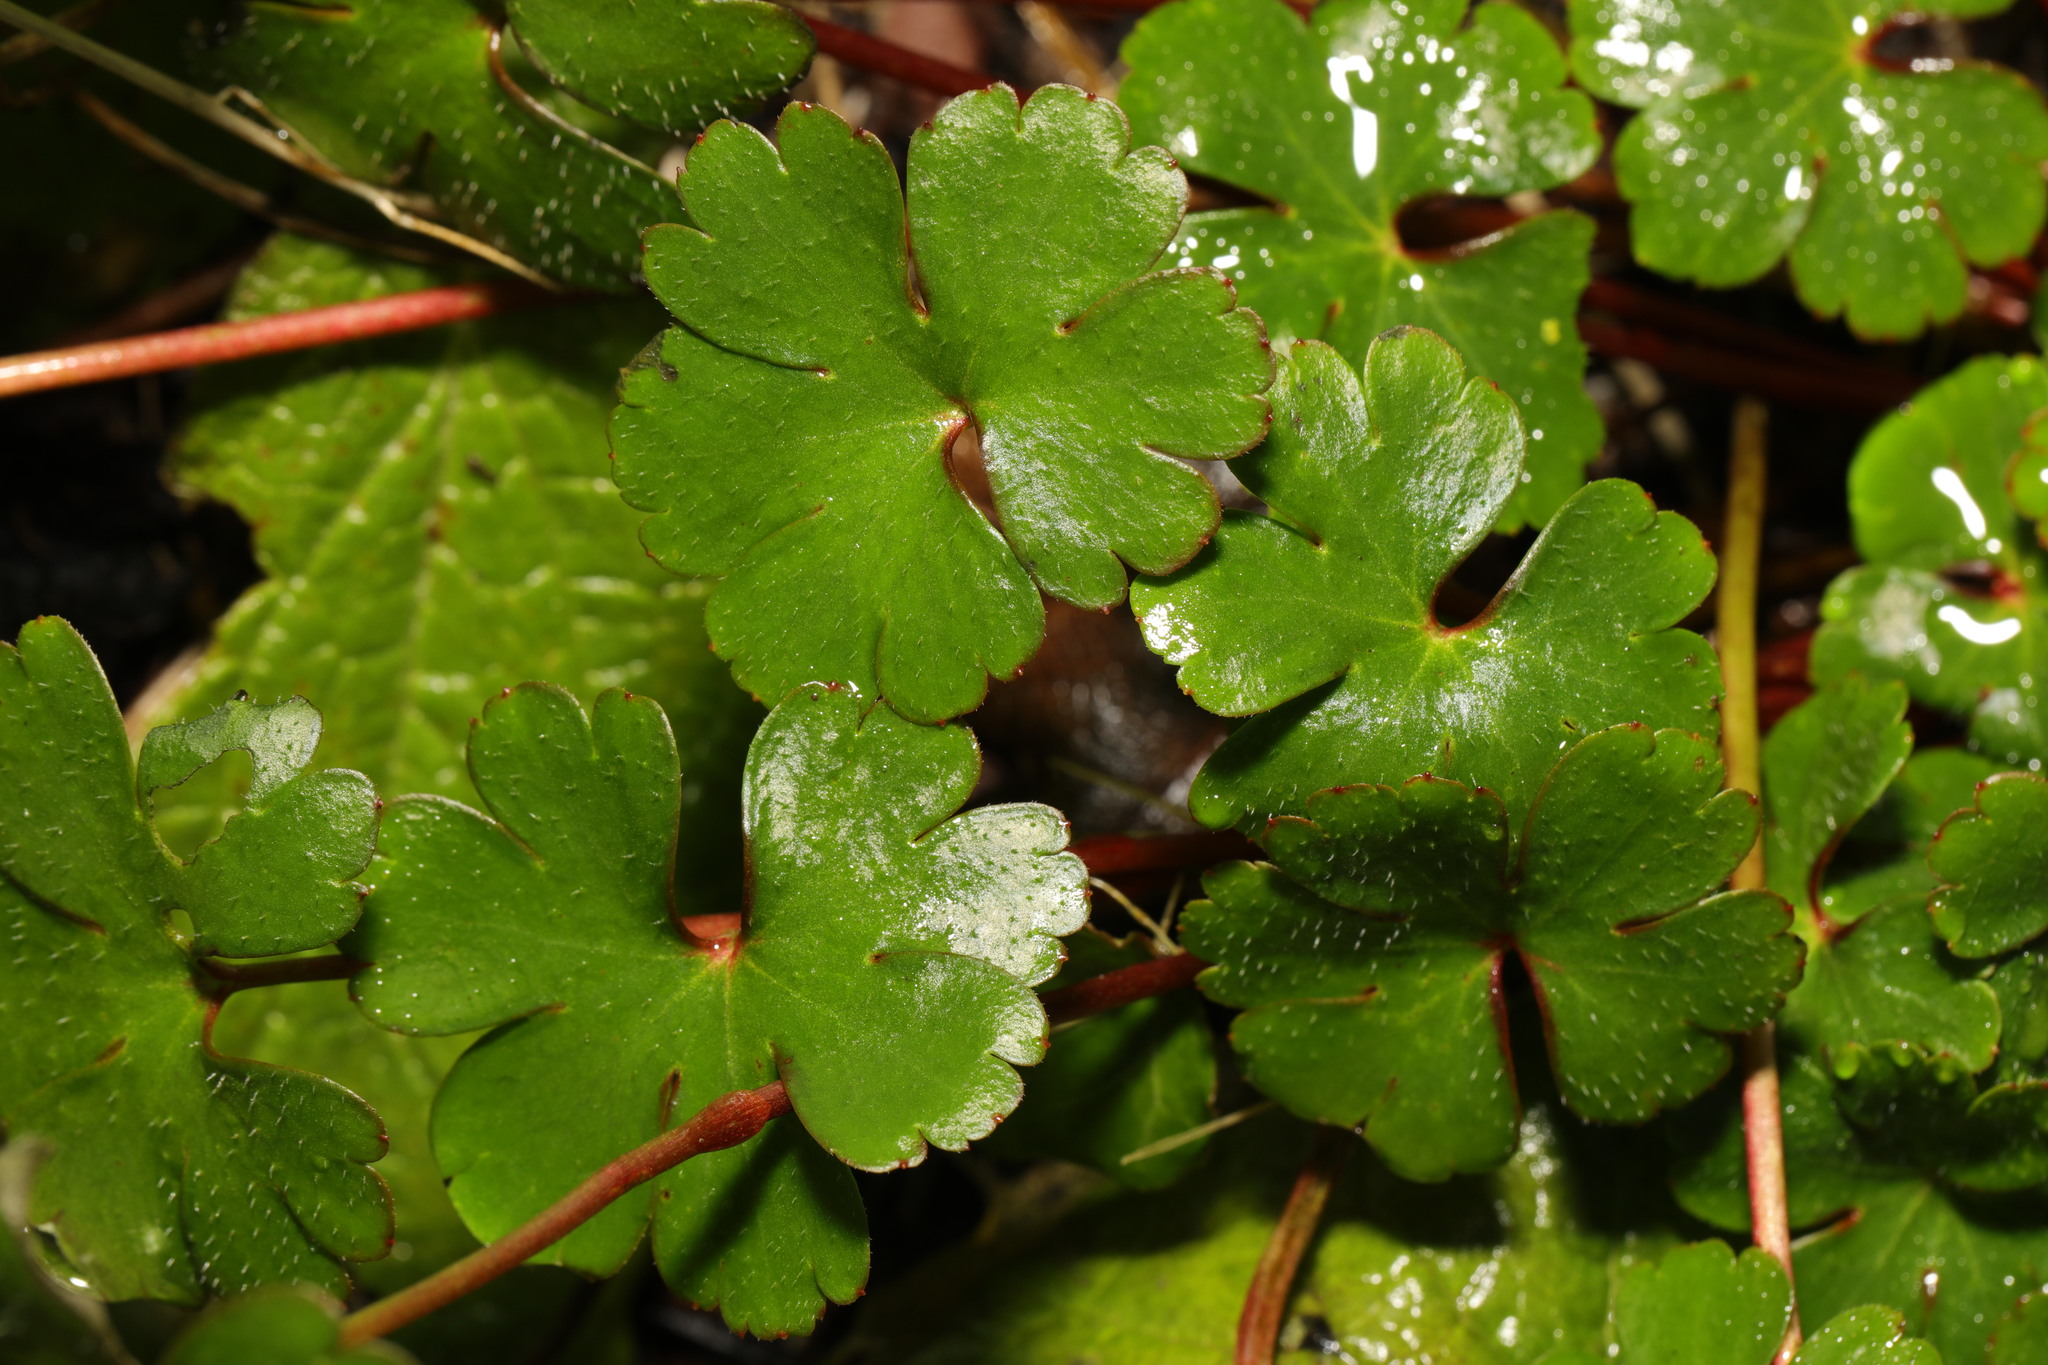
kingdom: Plantae
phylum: Tracheophyta
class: Magnoliopsida
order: Geraniales
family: Geraniaceae
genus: Geranium
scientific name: Geranium lucidum
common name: Shining crane's-bill
